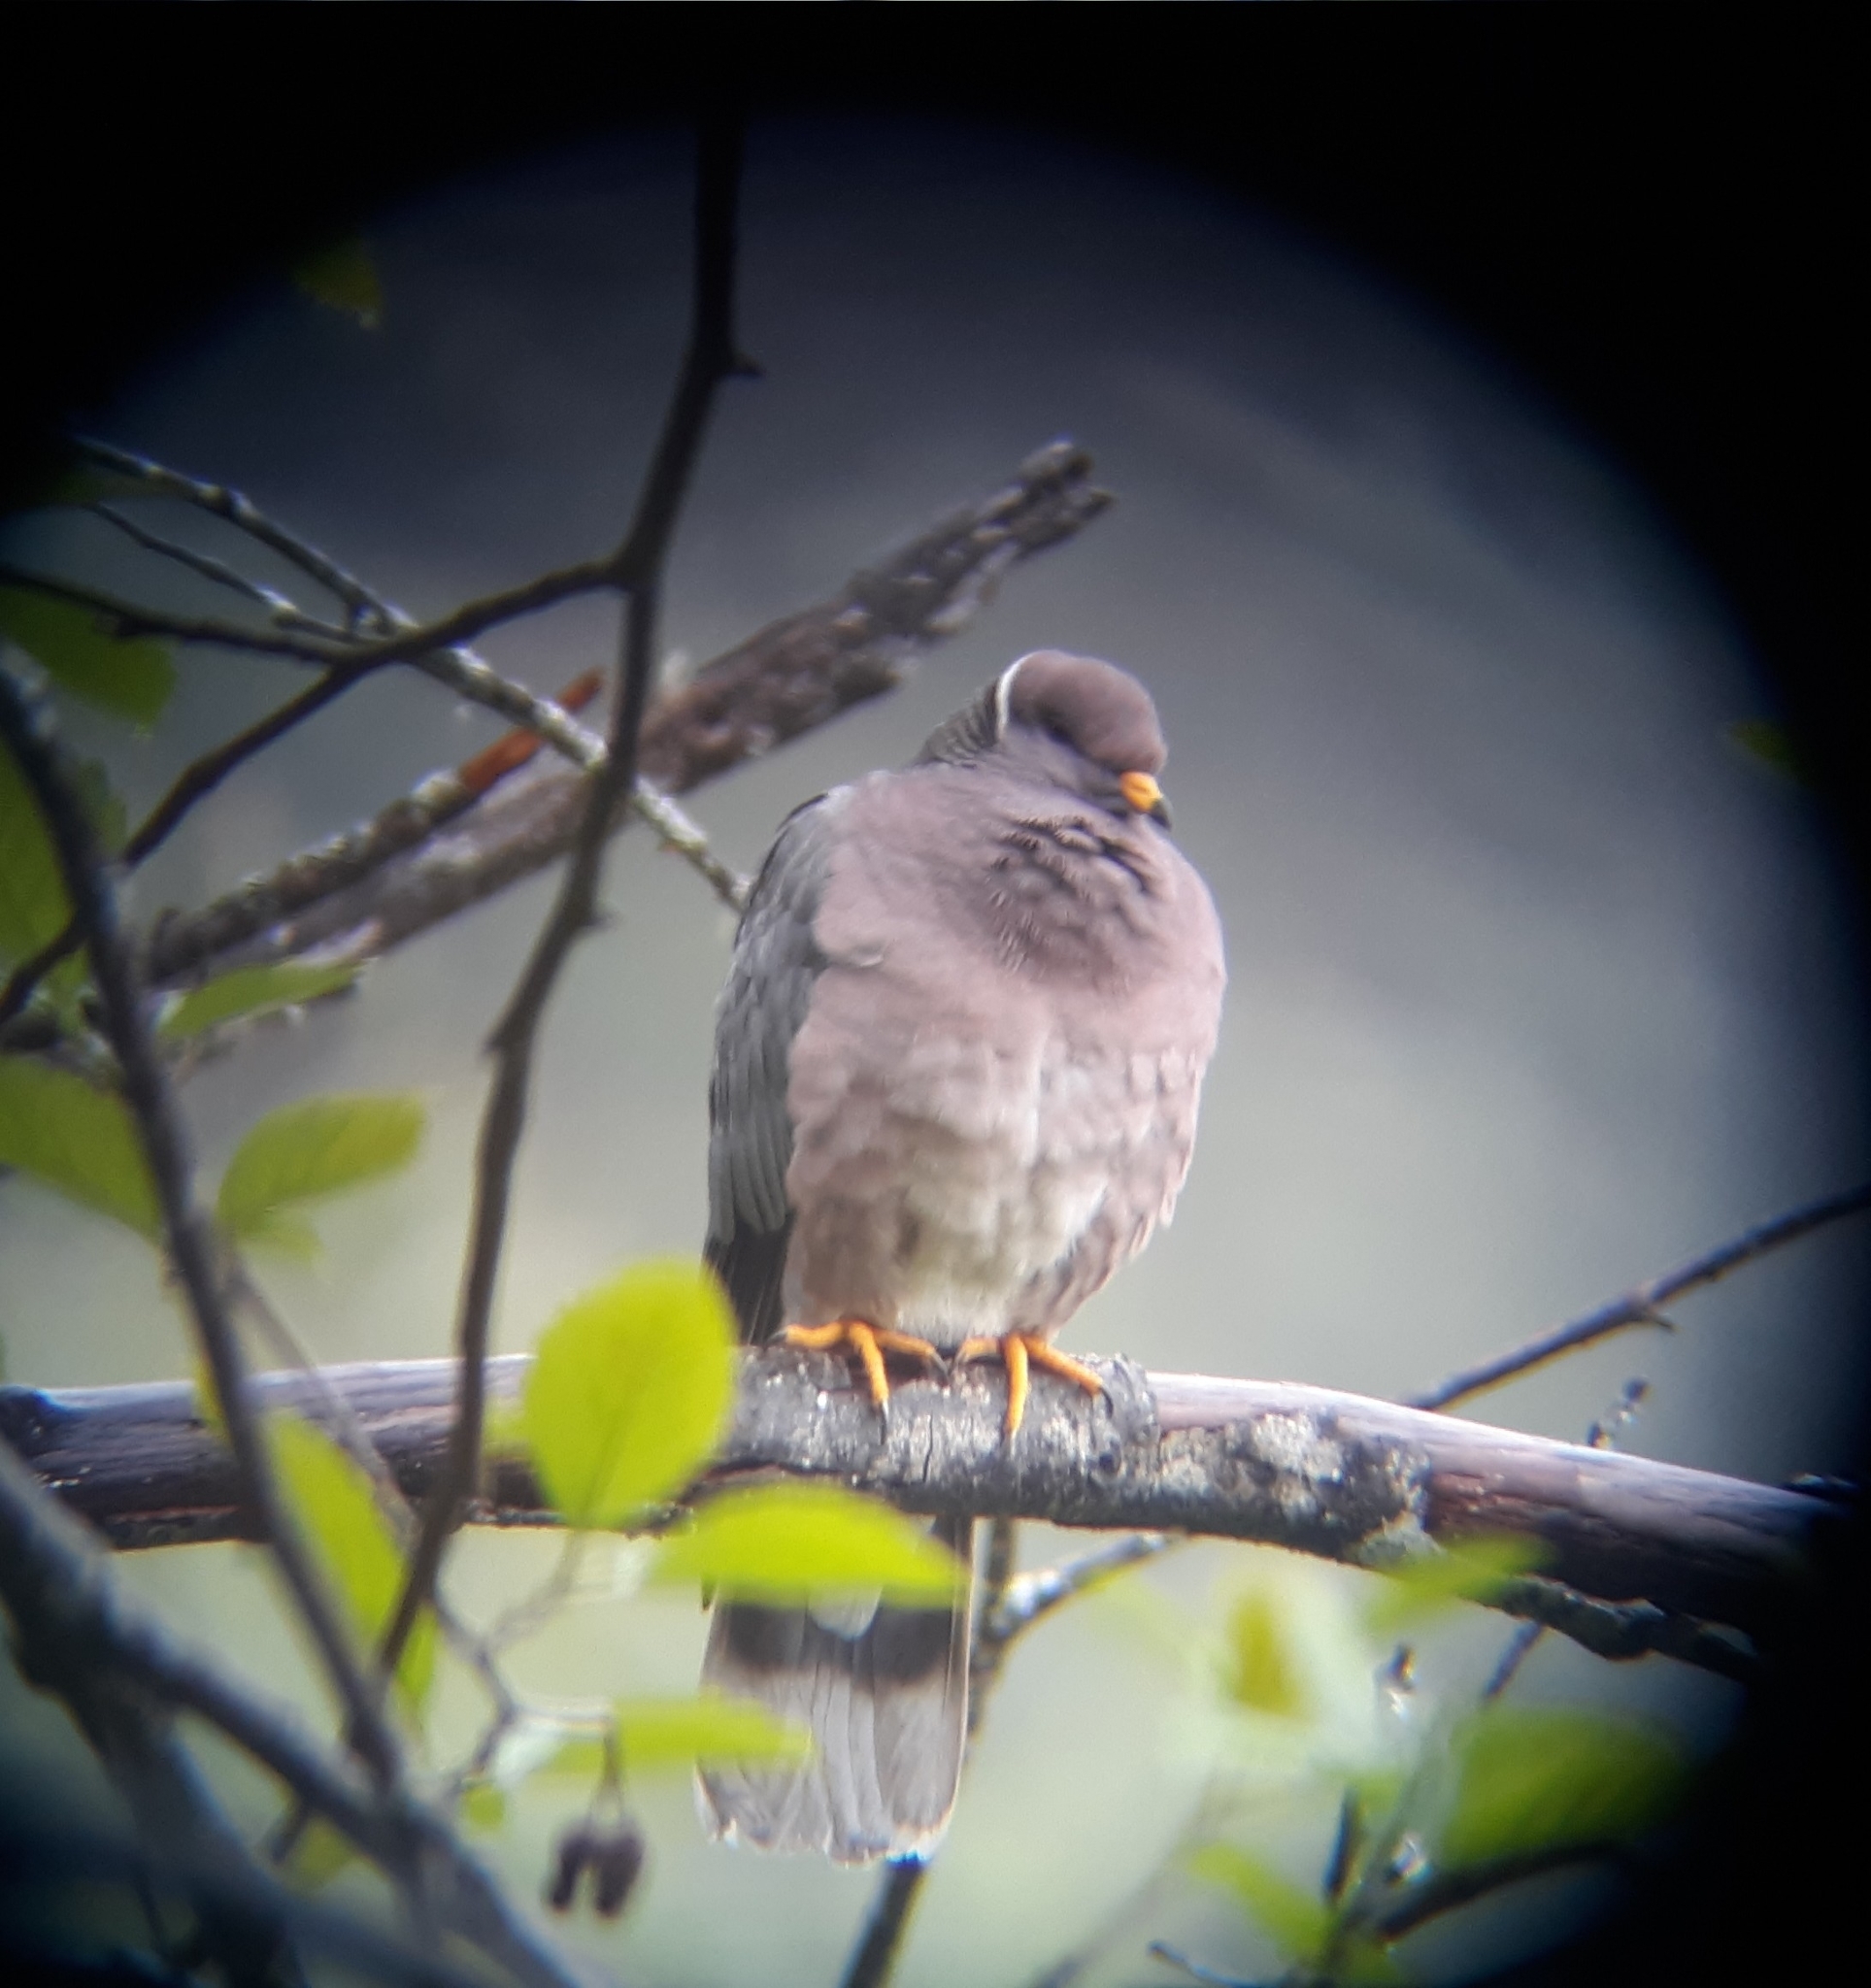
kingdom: Animalia
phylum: Chordata
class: Aves
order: Columbiformes
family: Columbidae
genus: Patagioenas
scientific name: Patagioenas fasciata
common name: Band-tailed pigeon
